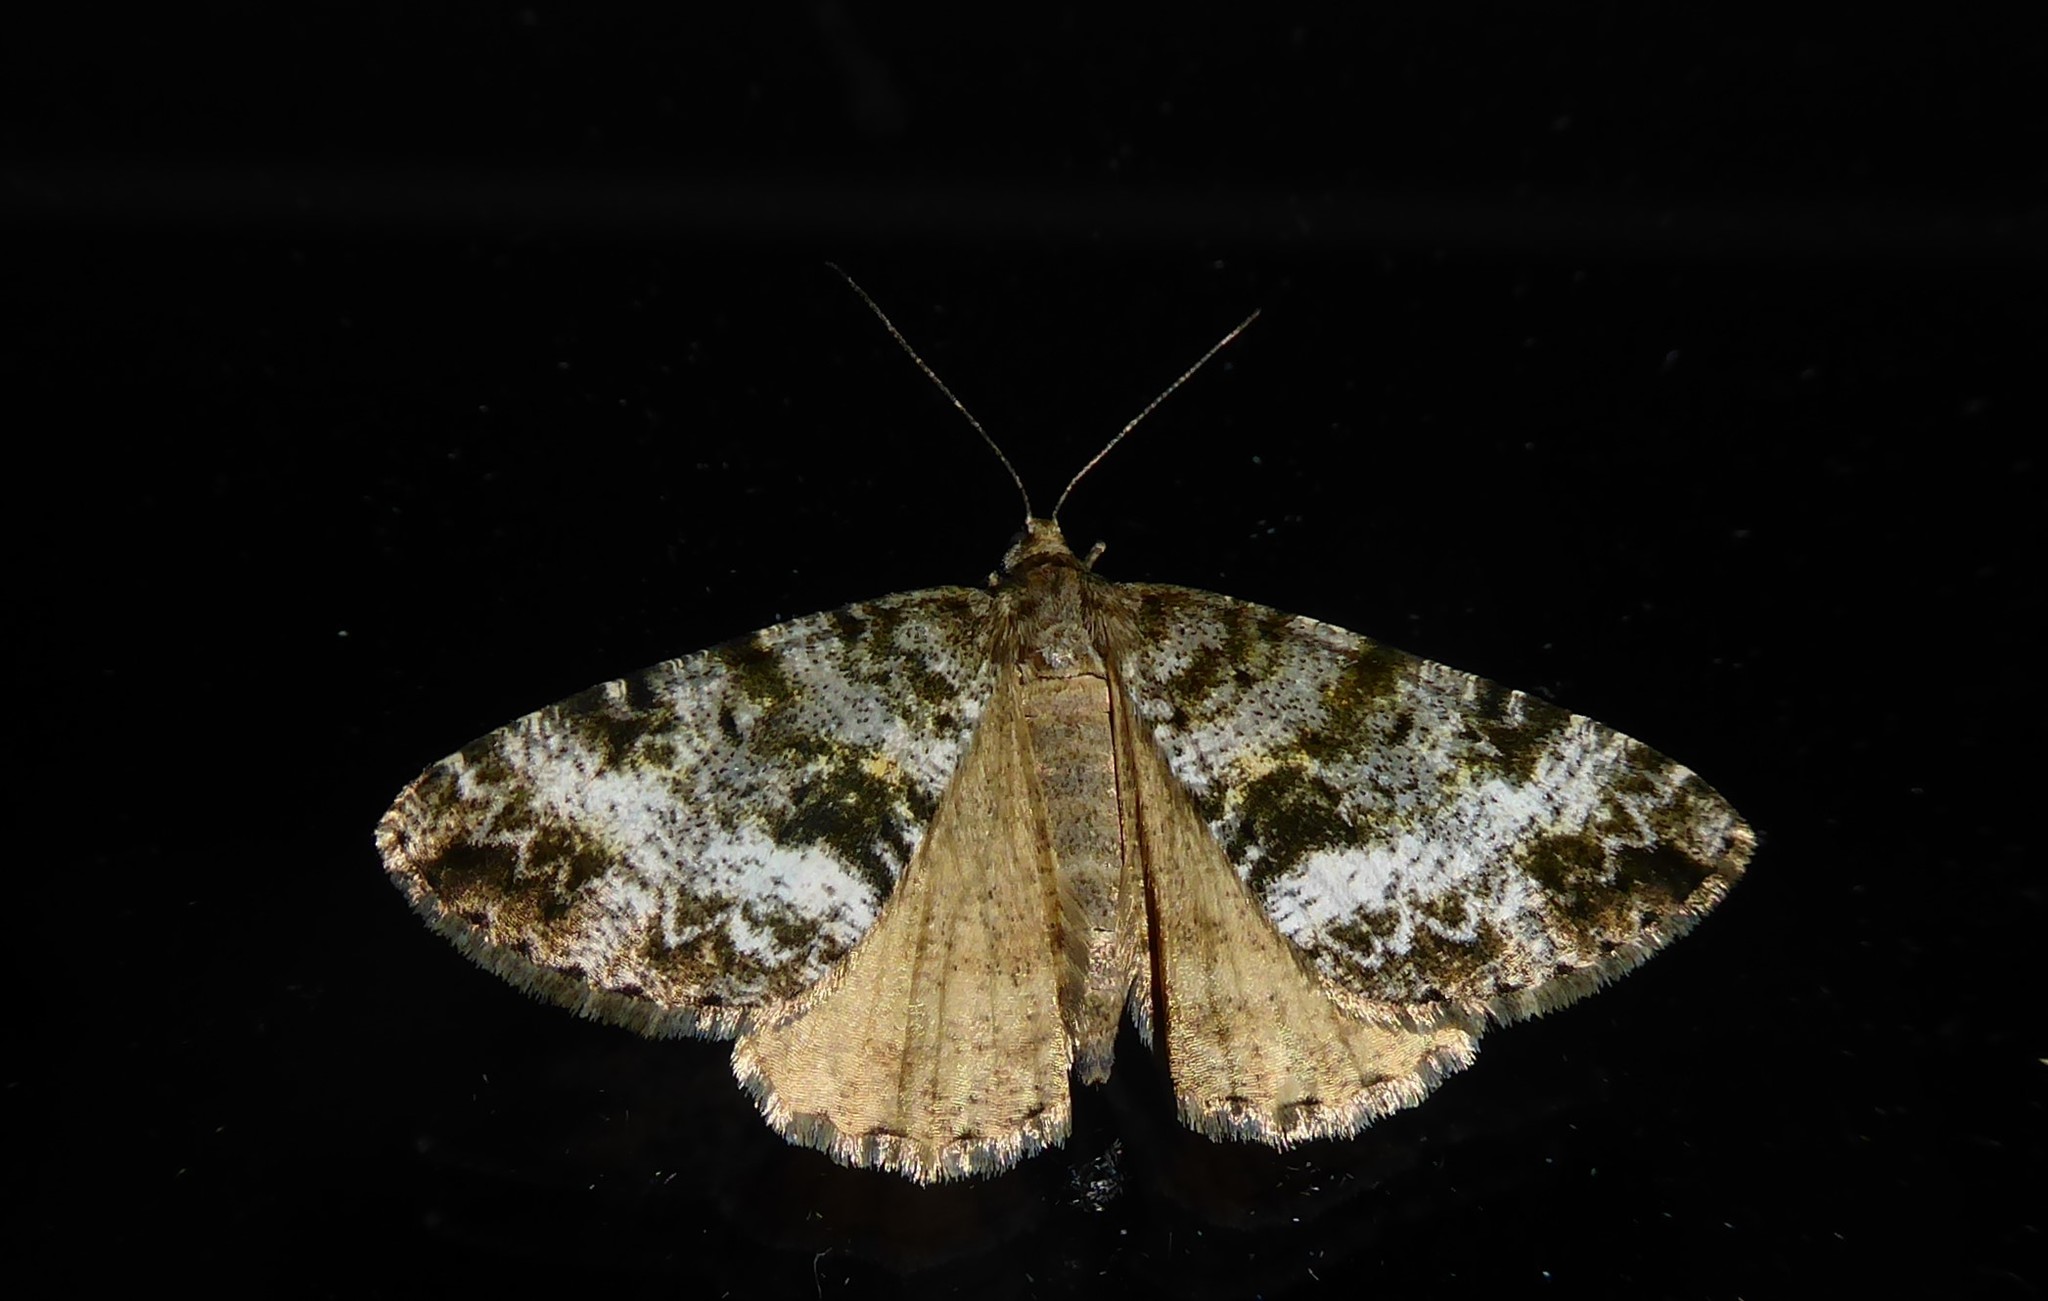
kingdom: Animalia
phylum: Arthropoda
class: Insecta
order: Lepidoptera
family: Geometridae
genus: Pseudocoremia
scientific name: Pseudocoremia lactiflua
